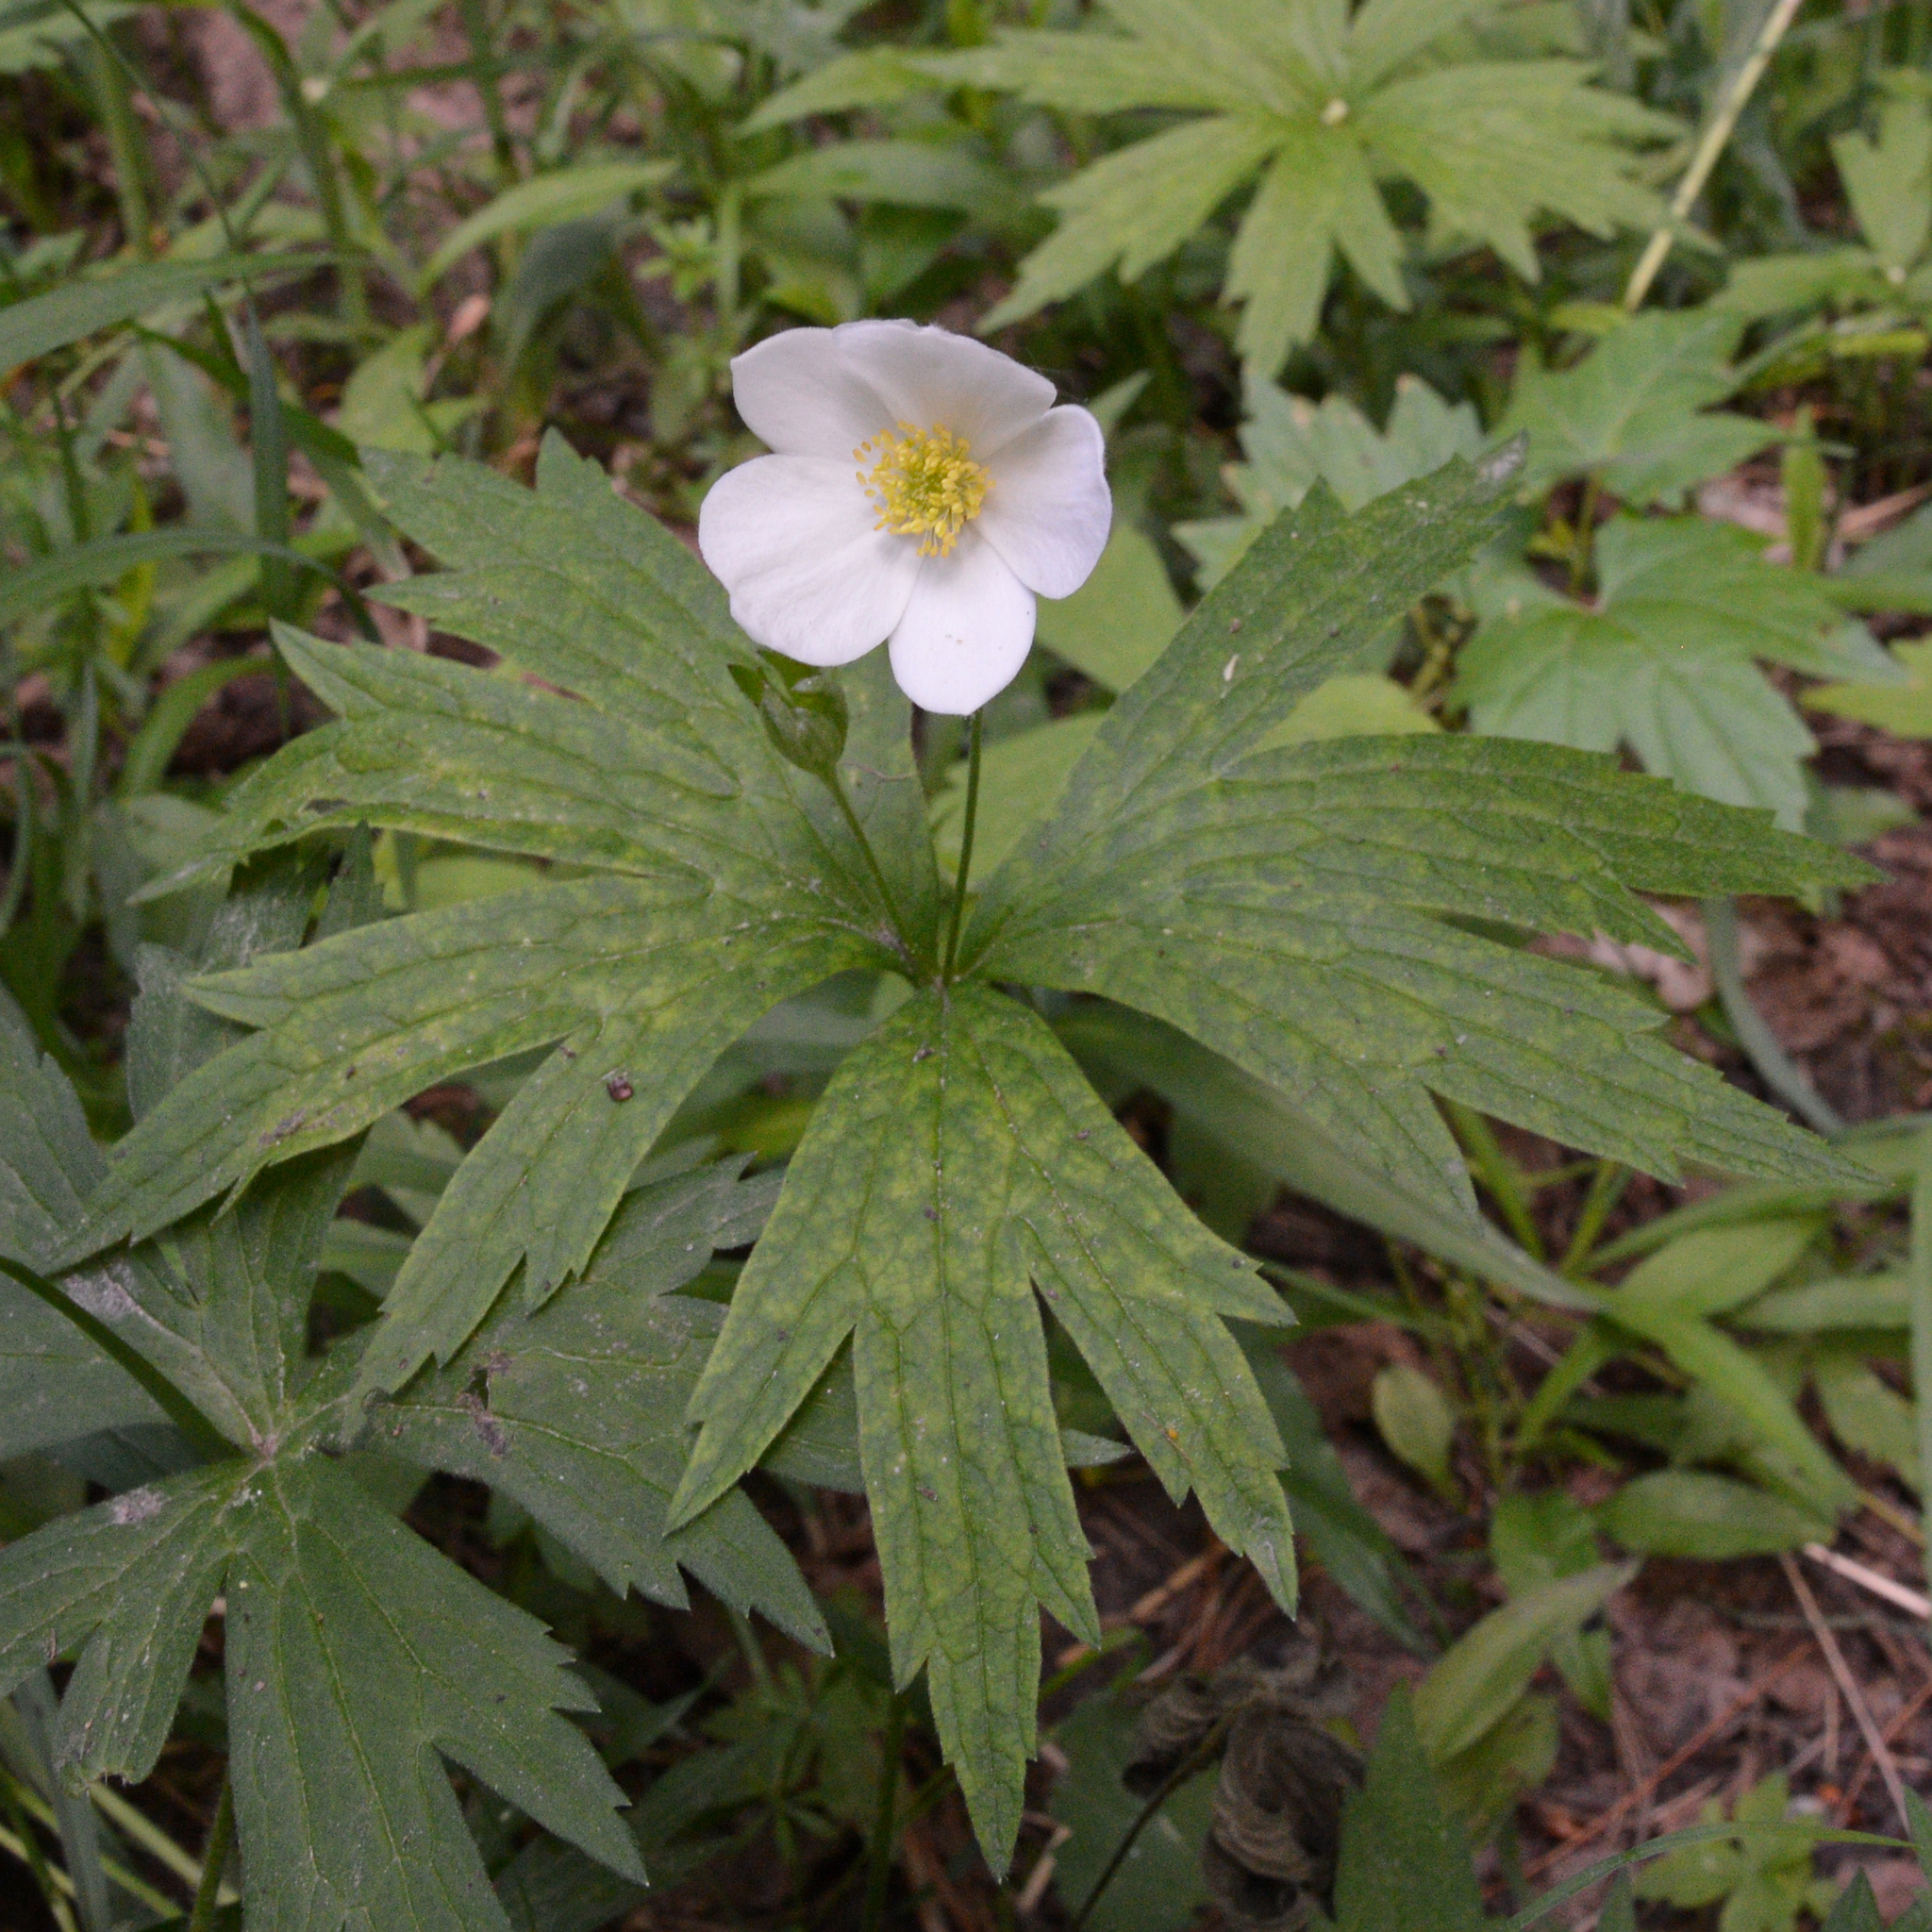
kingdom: Plantae
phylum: Tracheophyta
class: Magnoliopsida
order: Ranunculales
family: Ranunculaceae
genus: Anemonastrum
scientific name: Anemonastrum canadense
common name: Canada anemone
